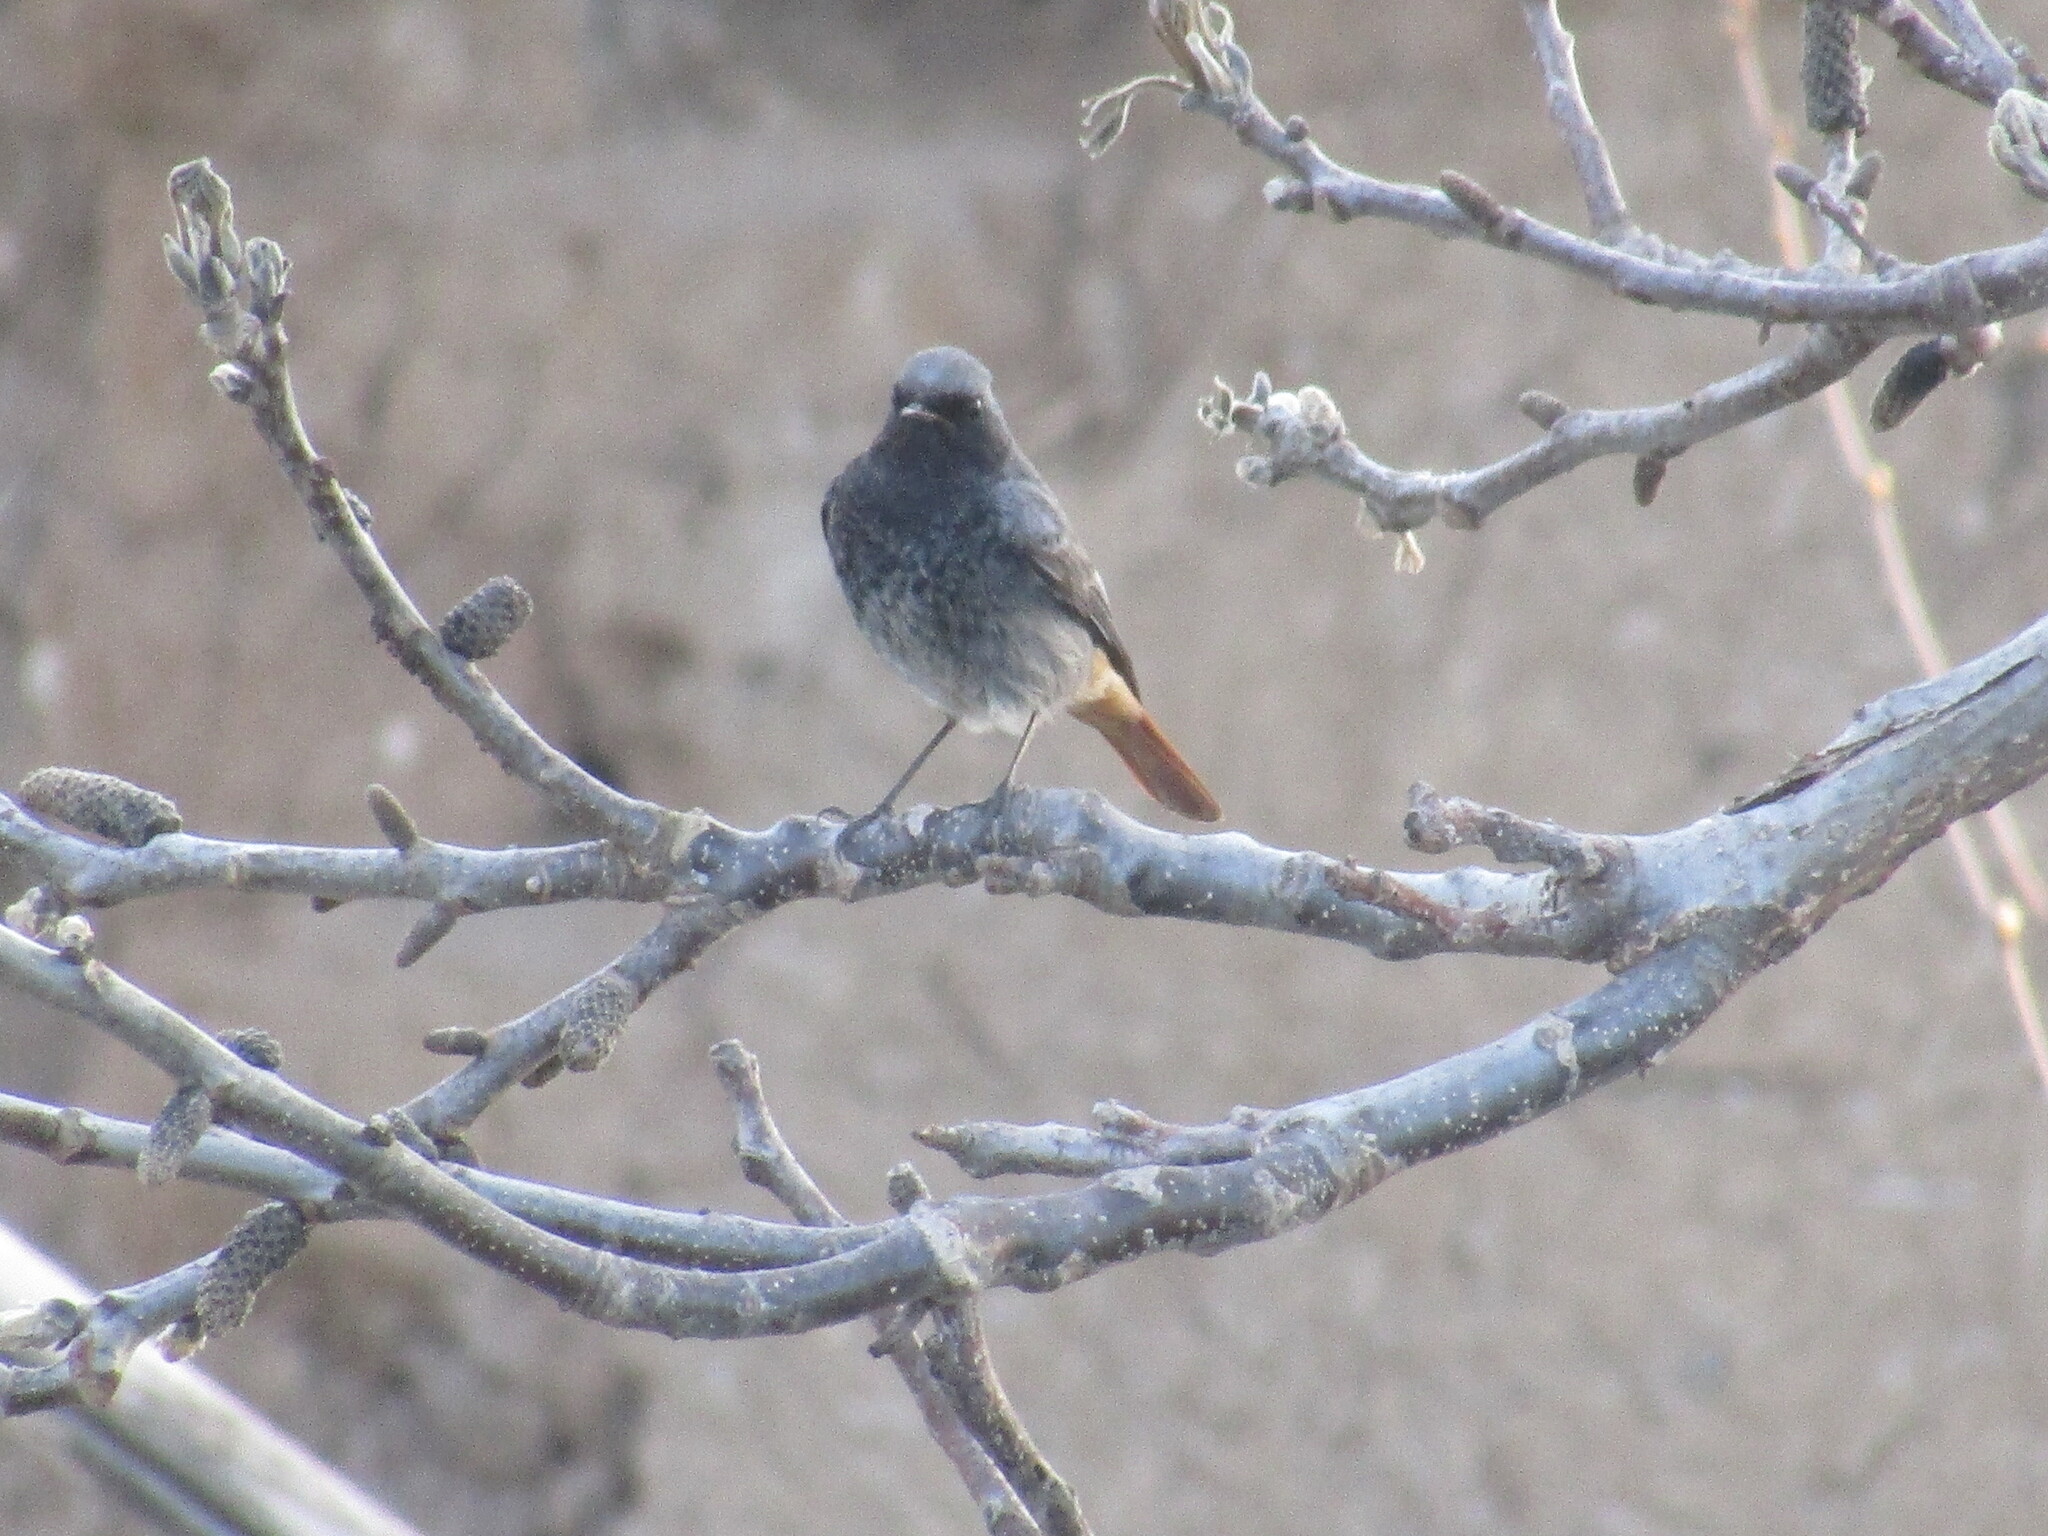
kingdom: Animalia
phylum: Chordata
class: Aves
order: Passeriformes
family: Muscicapidae
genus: Phoenicurus
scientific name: Phoenicurus ochruros
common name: Black redstart
